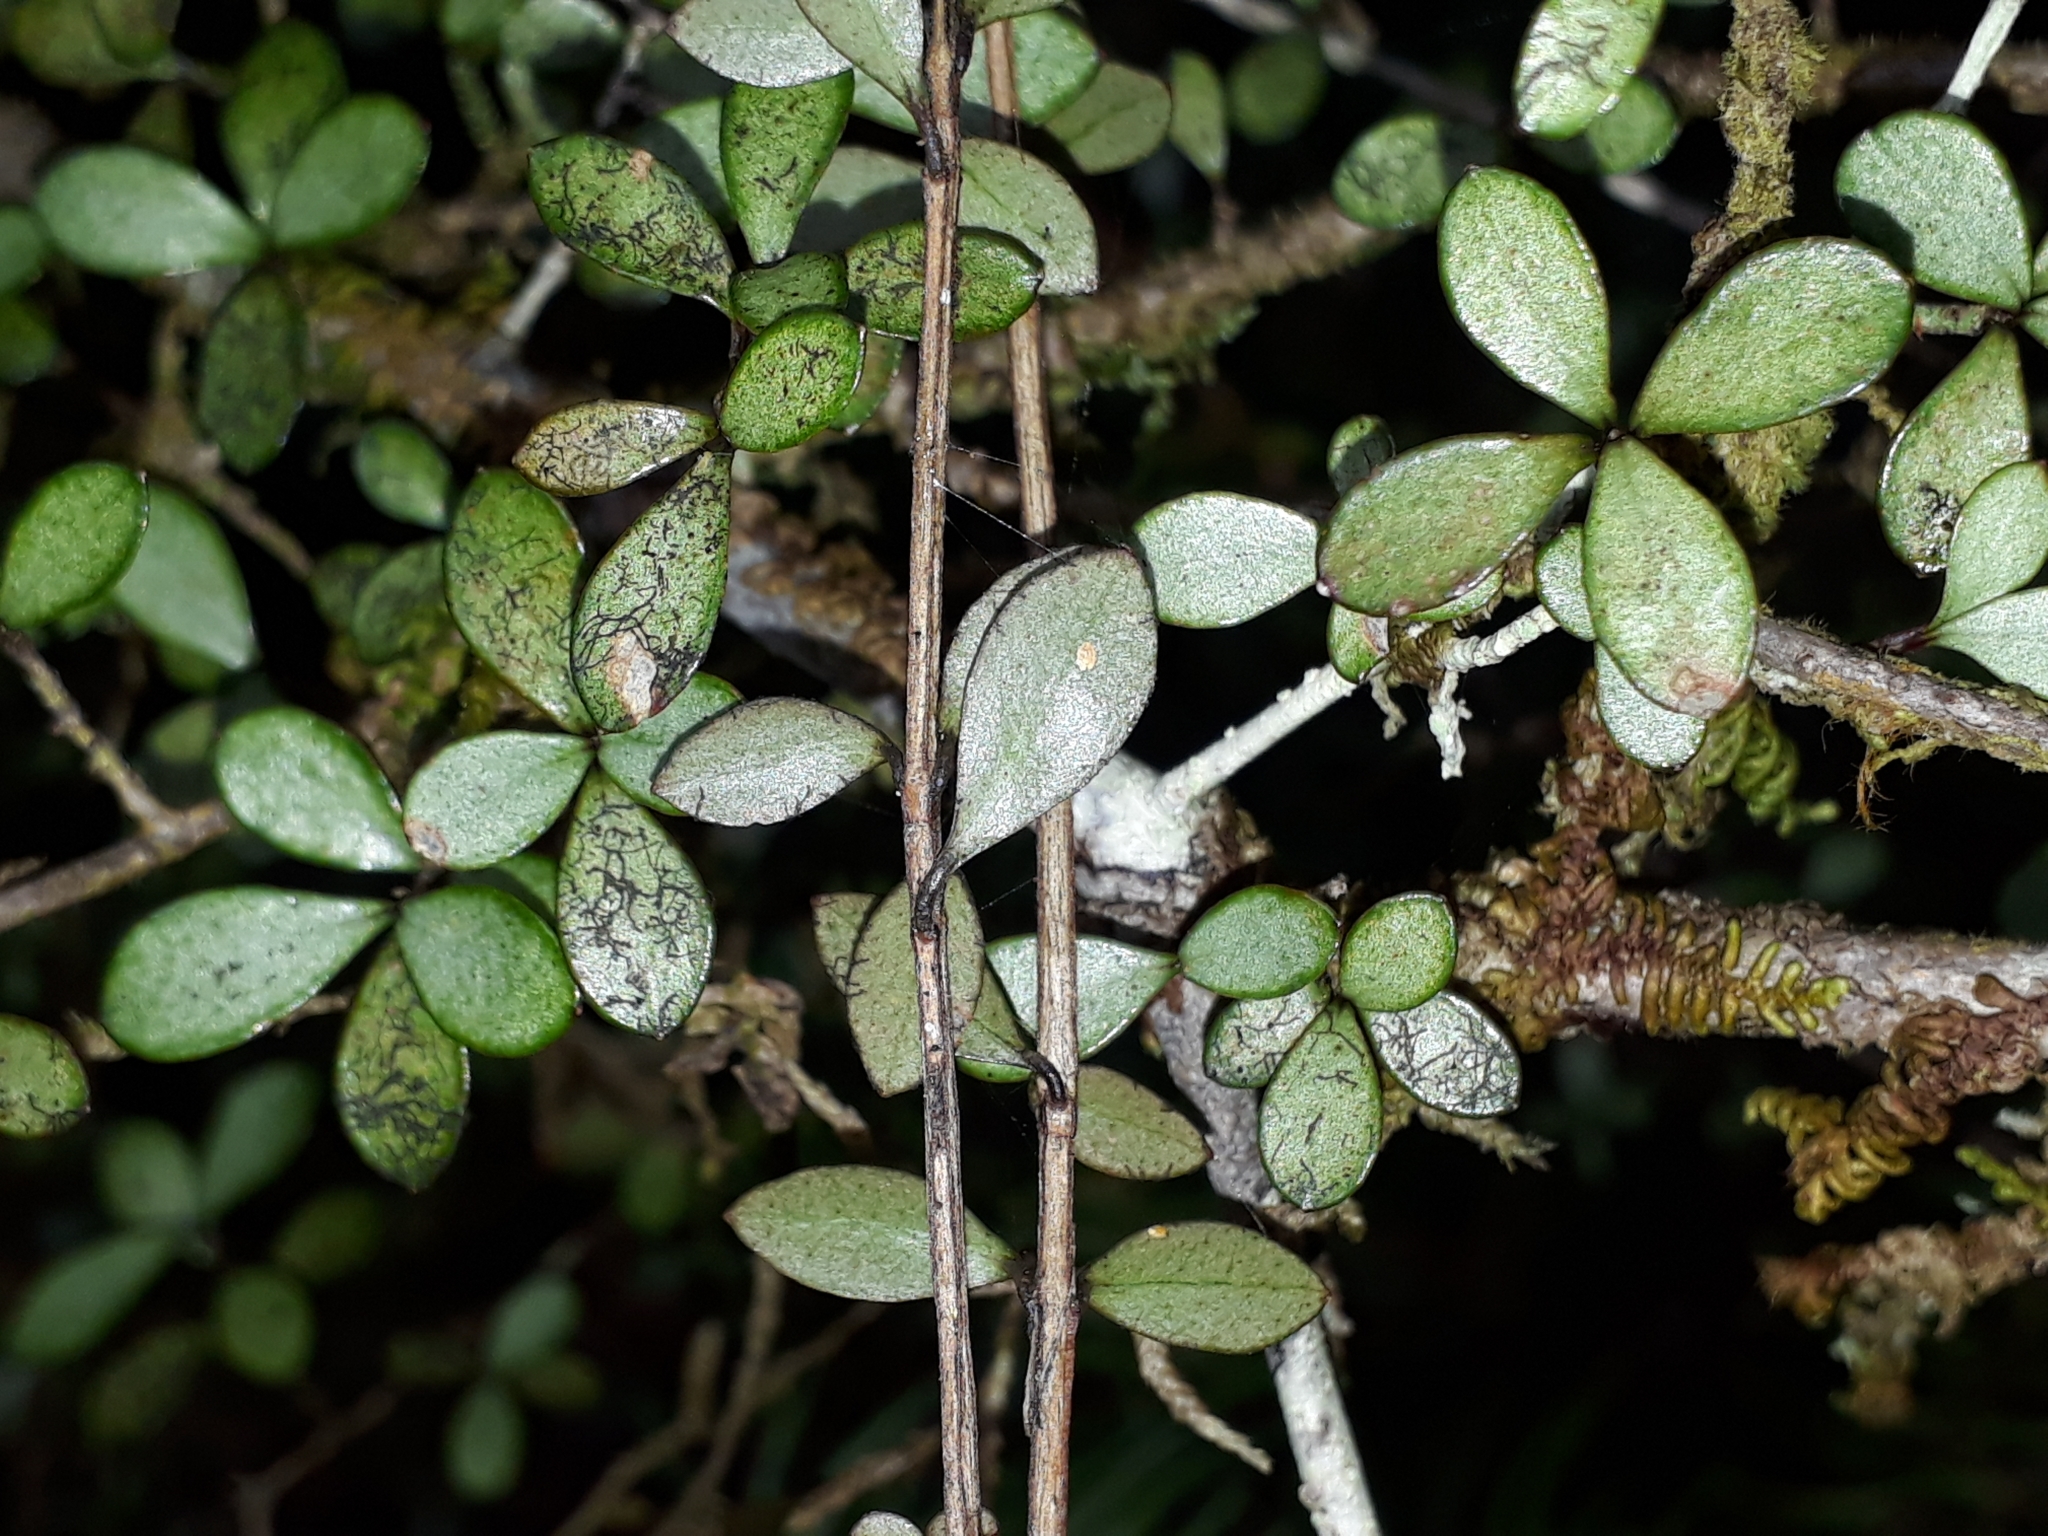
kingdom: Plantae
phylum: Tracheophyta
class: Magnoliopsida
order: Myrtales
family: Myrtaceae
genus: Neomyrtus
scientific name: Neomyrtus pedunculata
